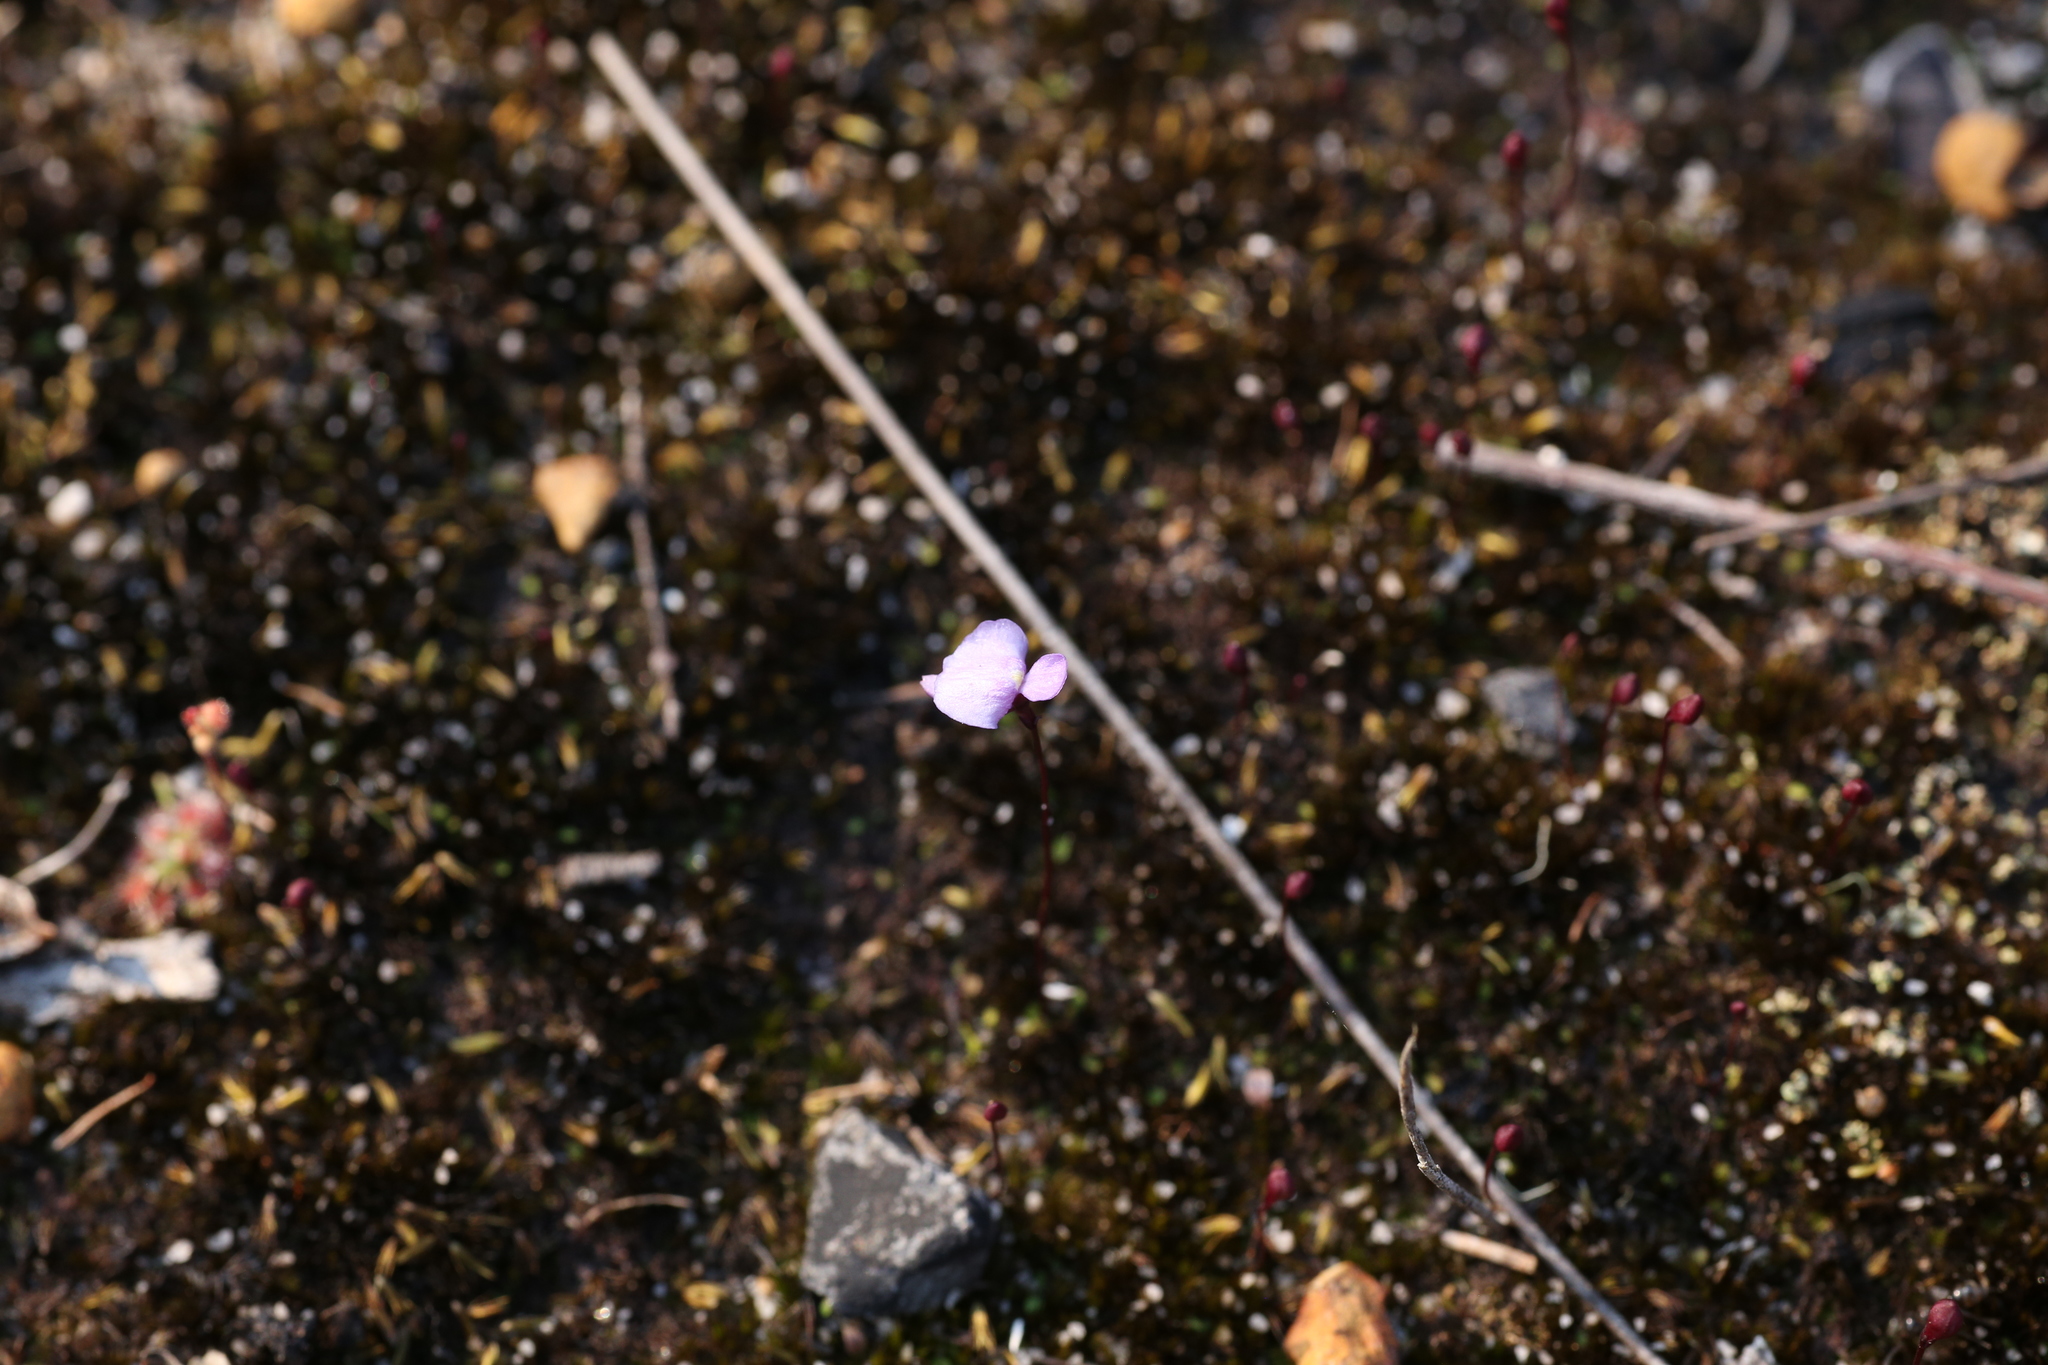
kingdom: Plantae
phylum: Tracheophyta
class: Magnoliopsida
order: Lamiales
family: Lentibulariaceae
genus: Utricularia
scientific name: Utricularia simplex
